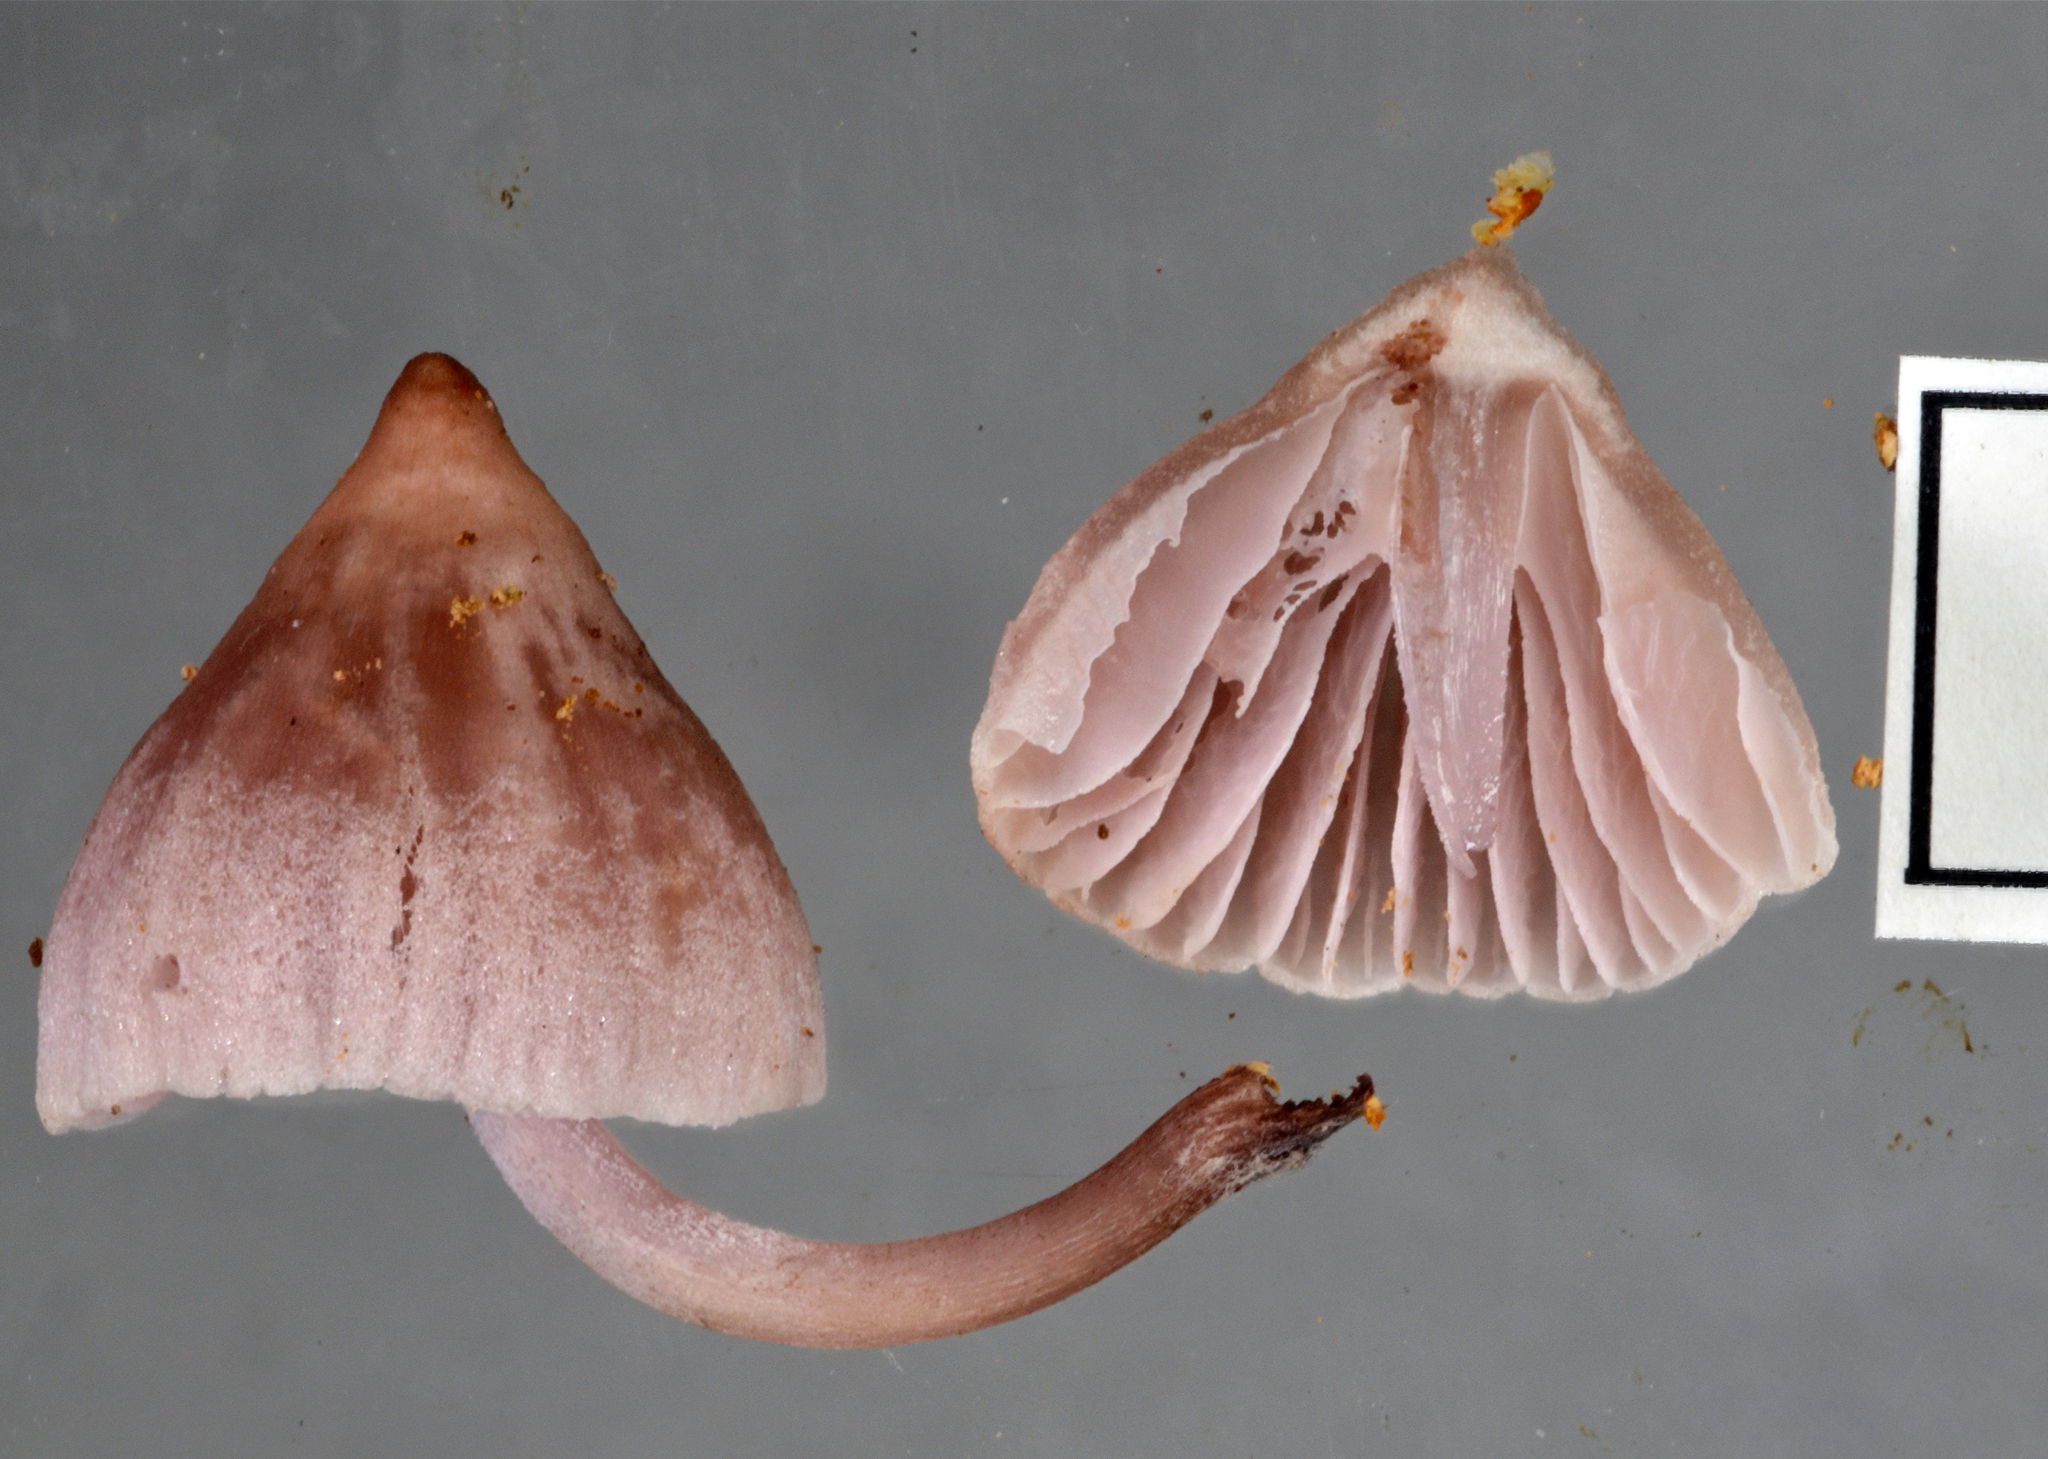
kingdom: Fungi
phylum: Basidiomycota
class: Agaricomycetes
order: Agaricales
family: Mycenaceae
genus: Mycena
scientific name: Mycena clarkeana
